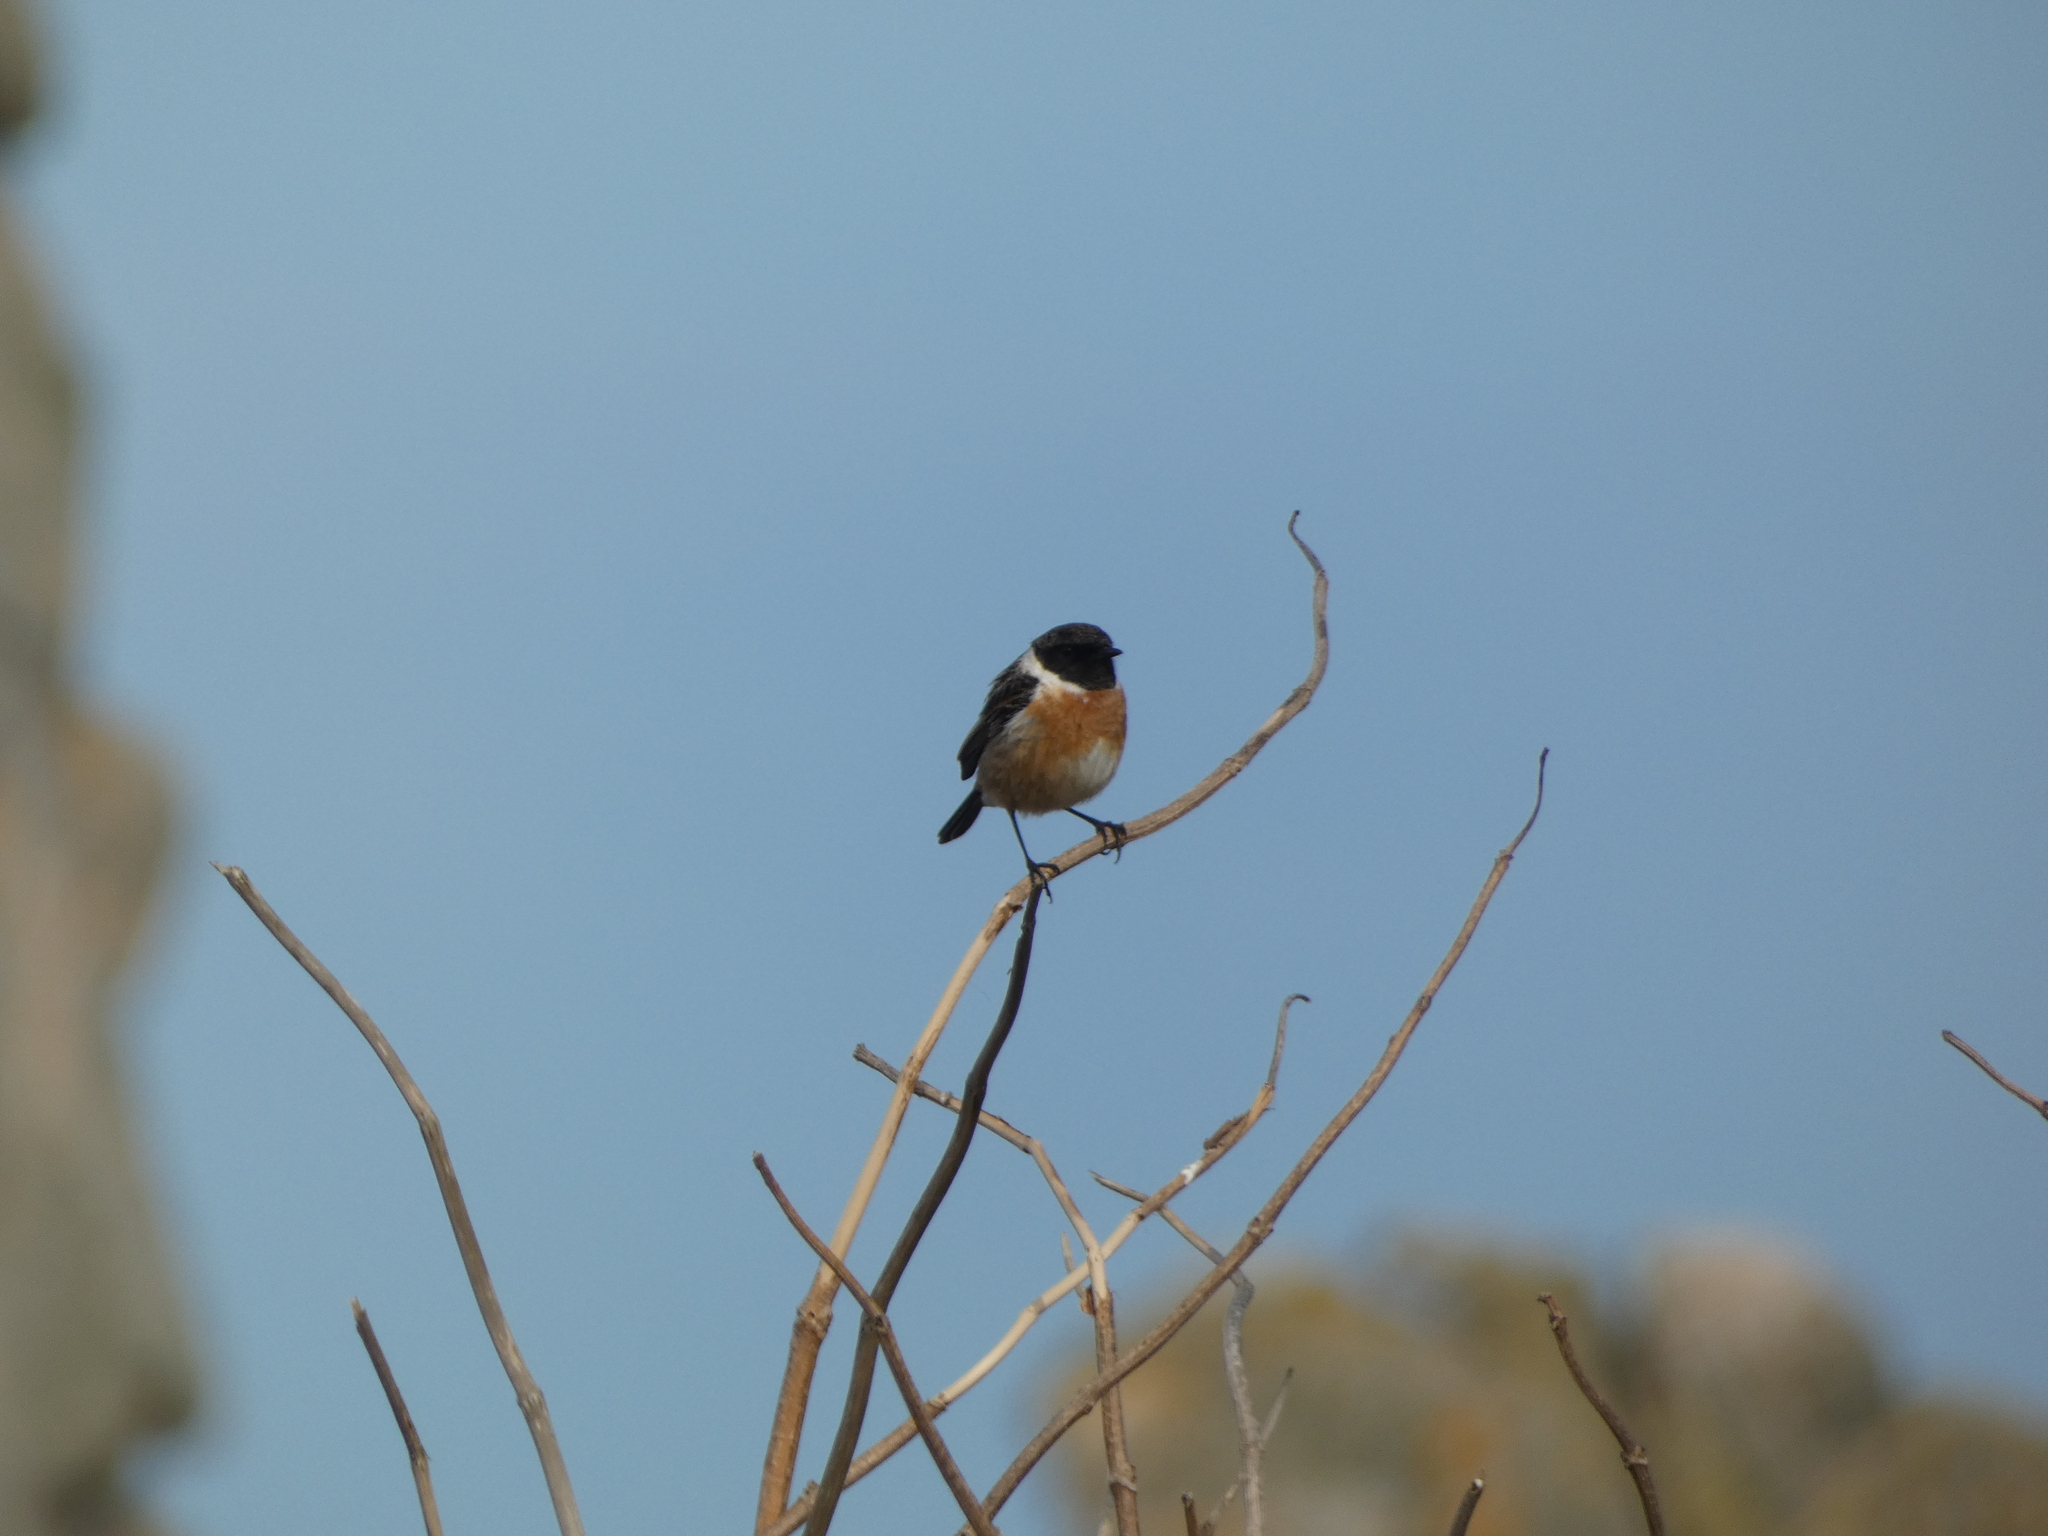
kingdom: Animalia
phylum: Chordata
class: Aves
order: Passeriformes
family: Muscicapidae
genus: Saxicola
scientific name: Saxicola rubicola
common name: European stonechat
